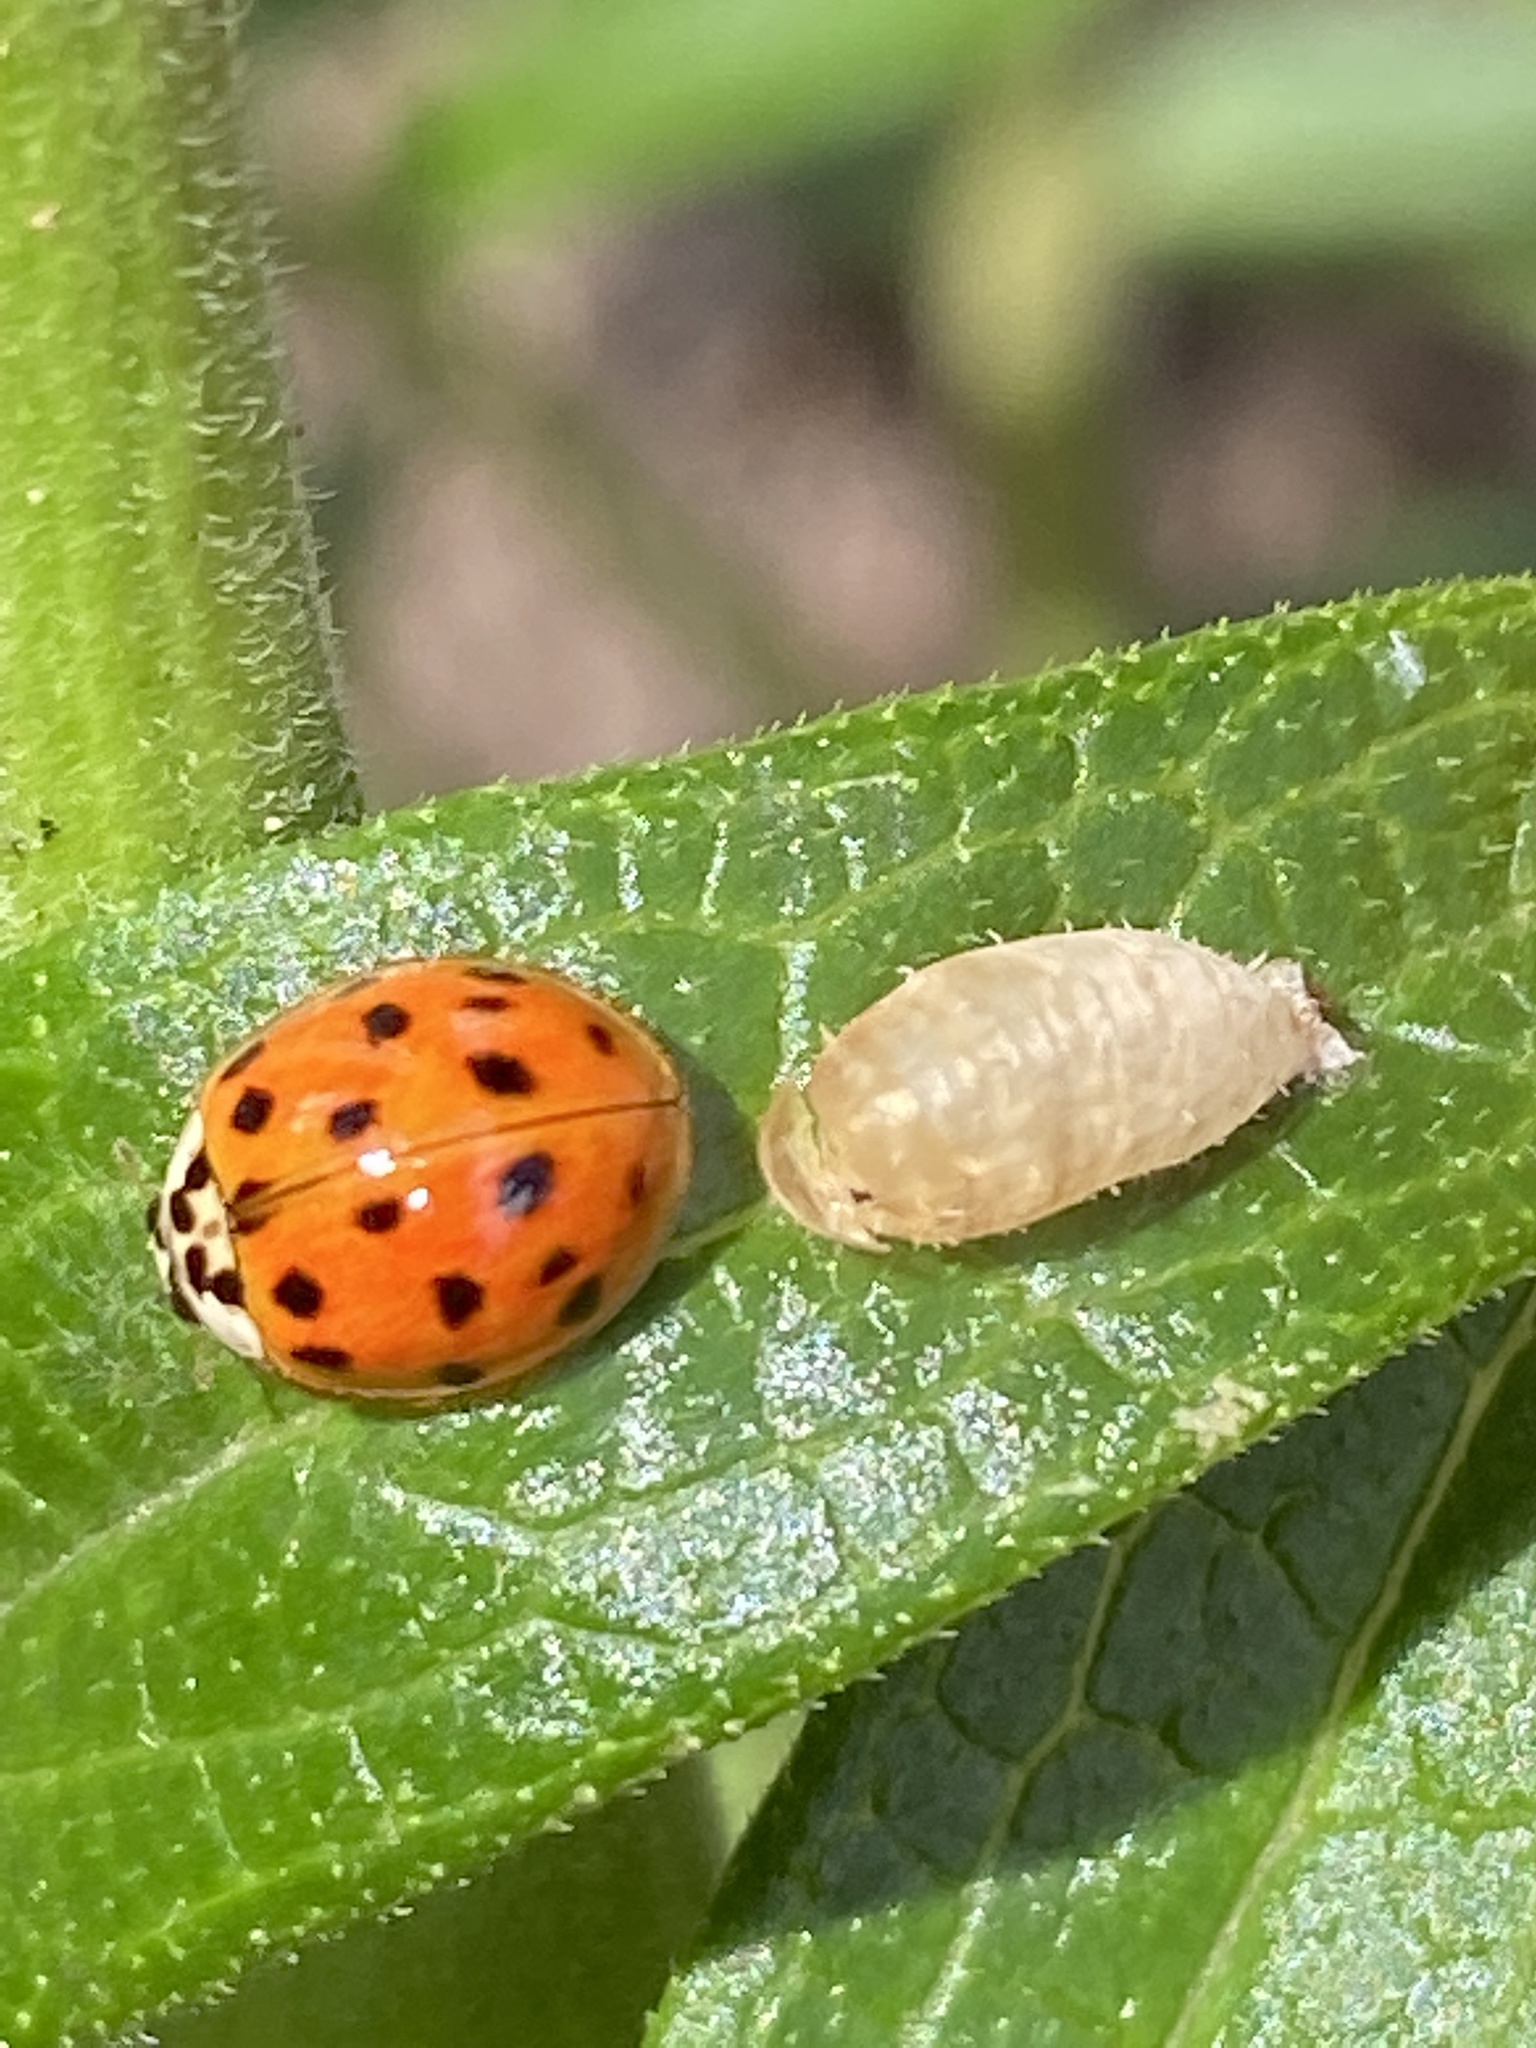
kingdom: Animalia
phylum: Arthropoda
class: Insecta
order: Coleoptera
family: Coccinellidae
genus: Harmonia
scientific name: Harmonia axyridis
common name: Harlequin ladybird
